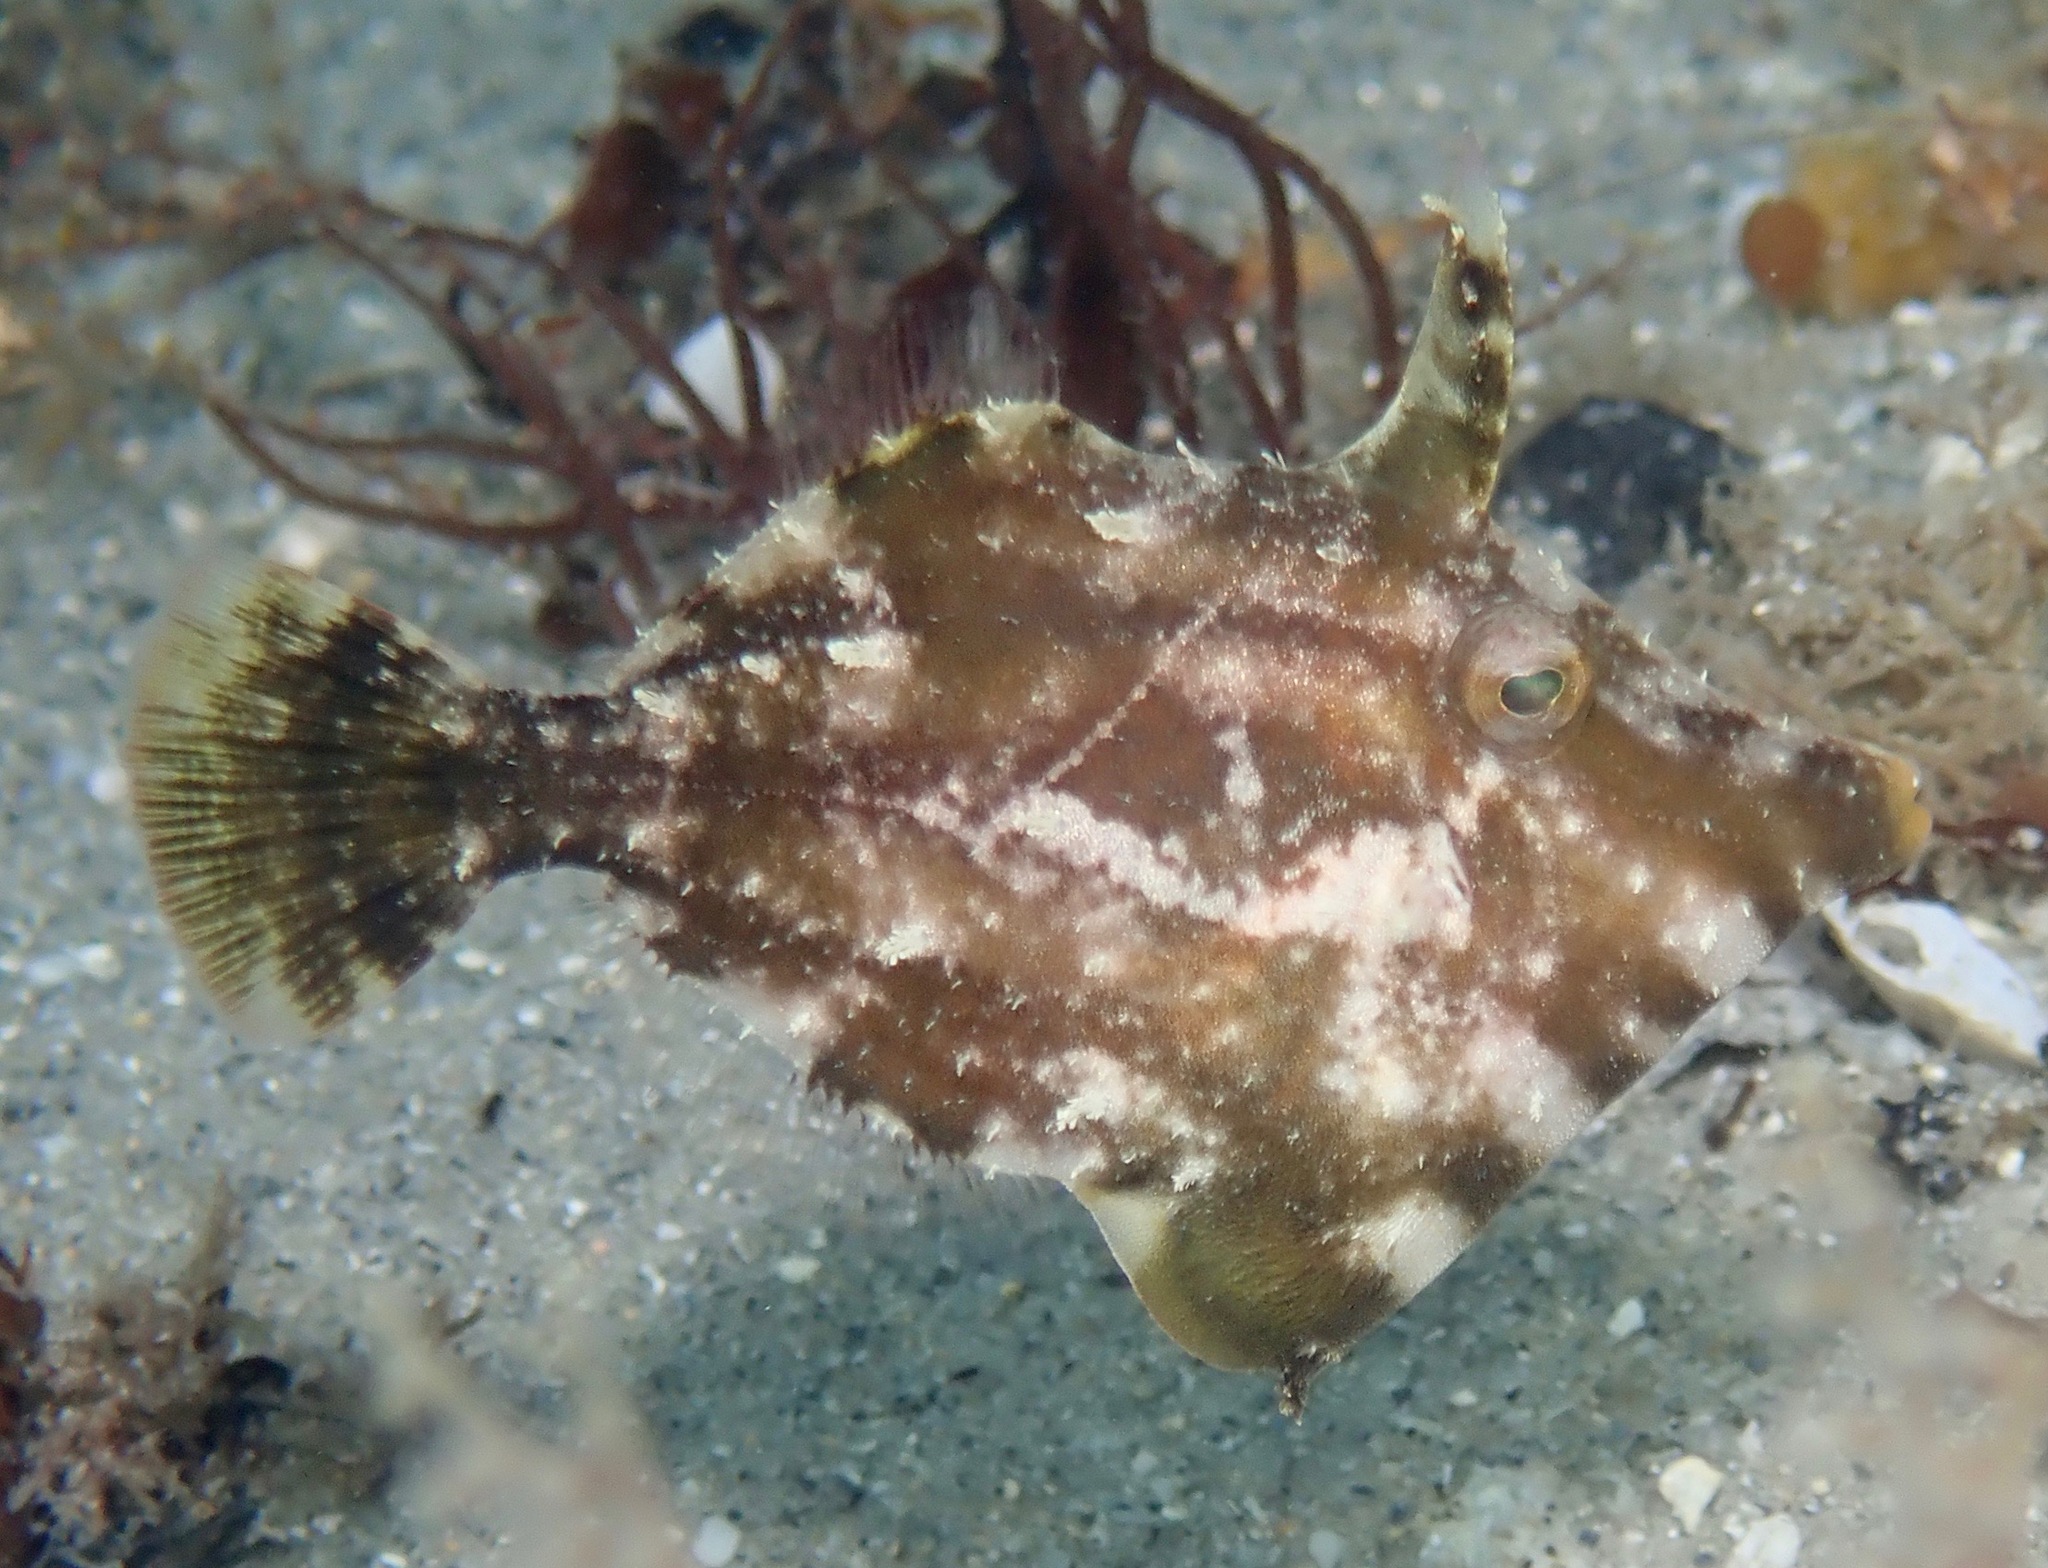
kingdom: Animalia
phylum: Chordata
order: Tetraodontiformes
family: Monacanthidae
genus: Monacanthus
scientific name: Monacanthus ciliatus
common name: Fringed filefish
